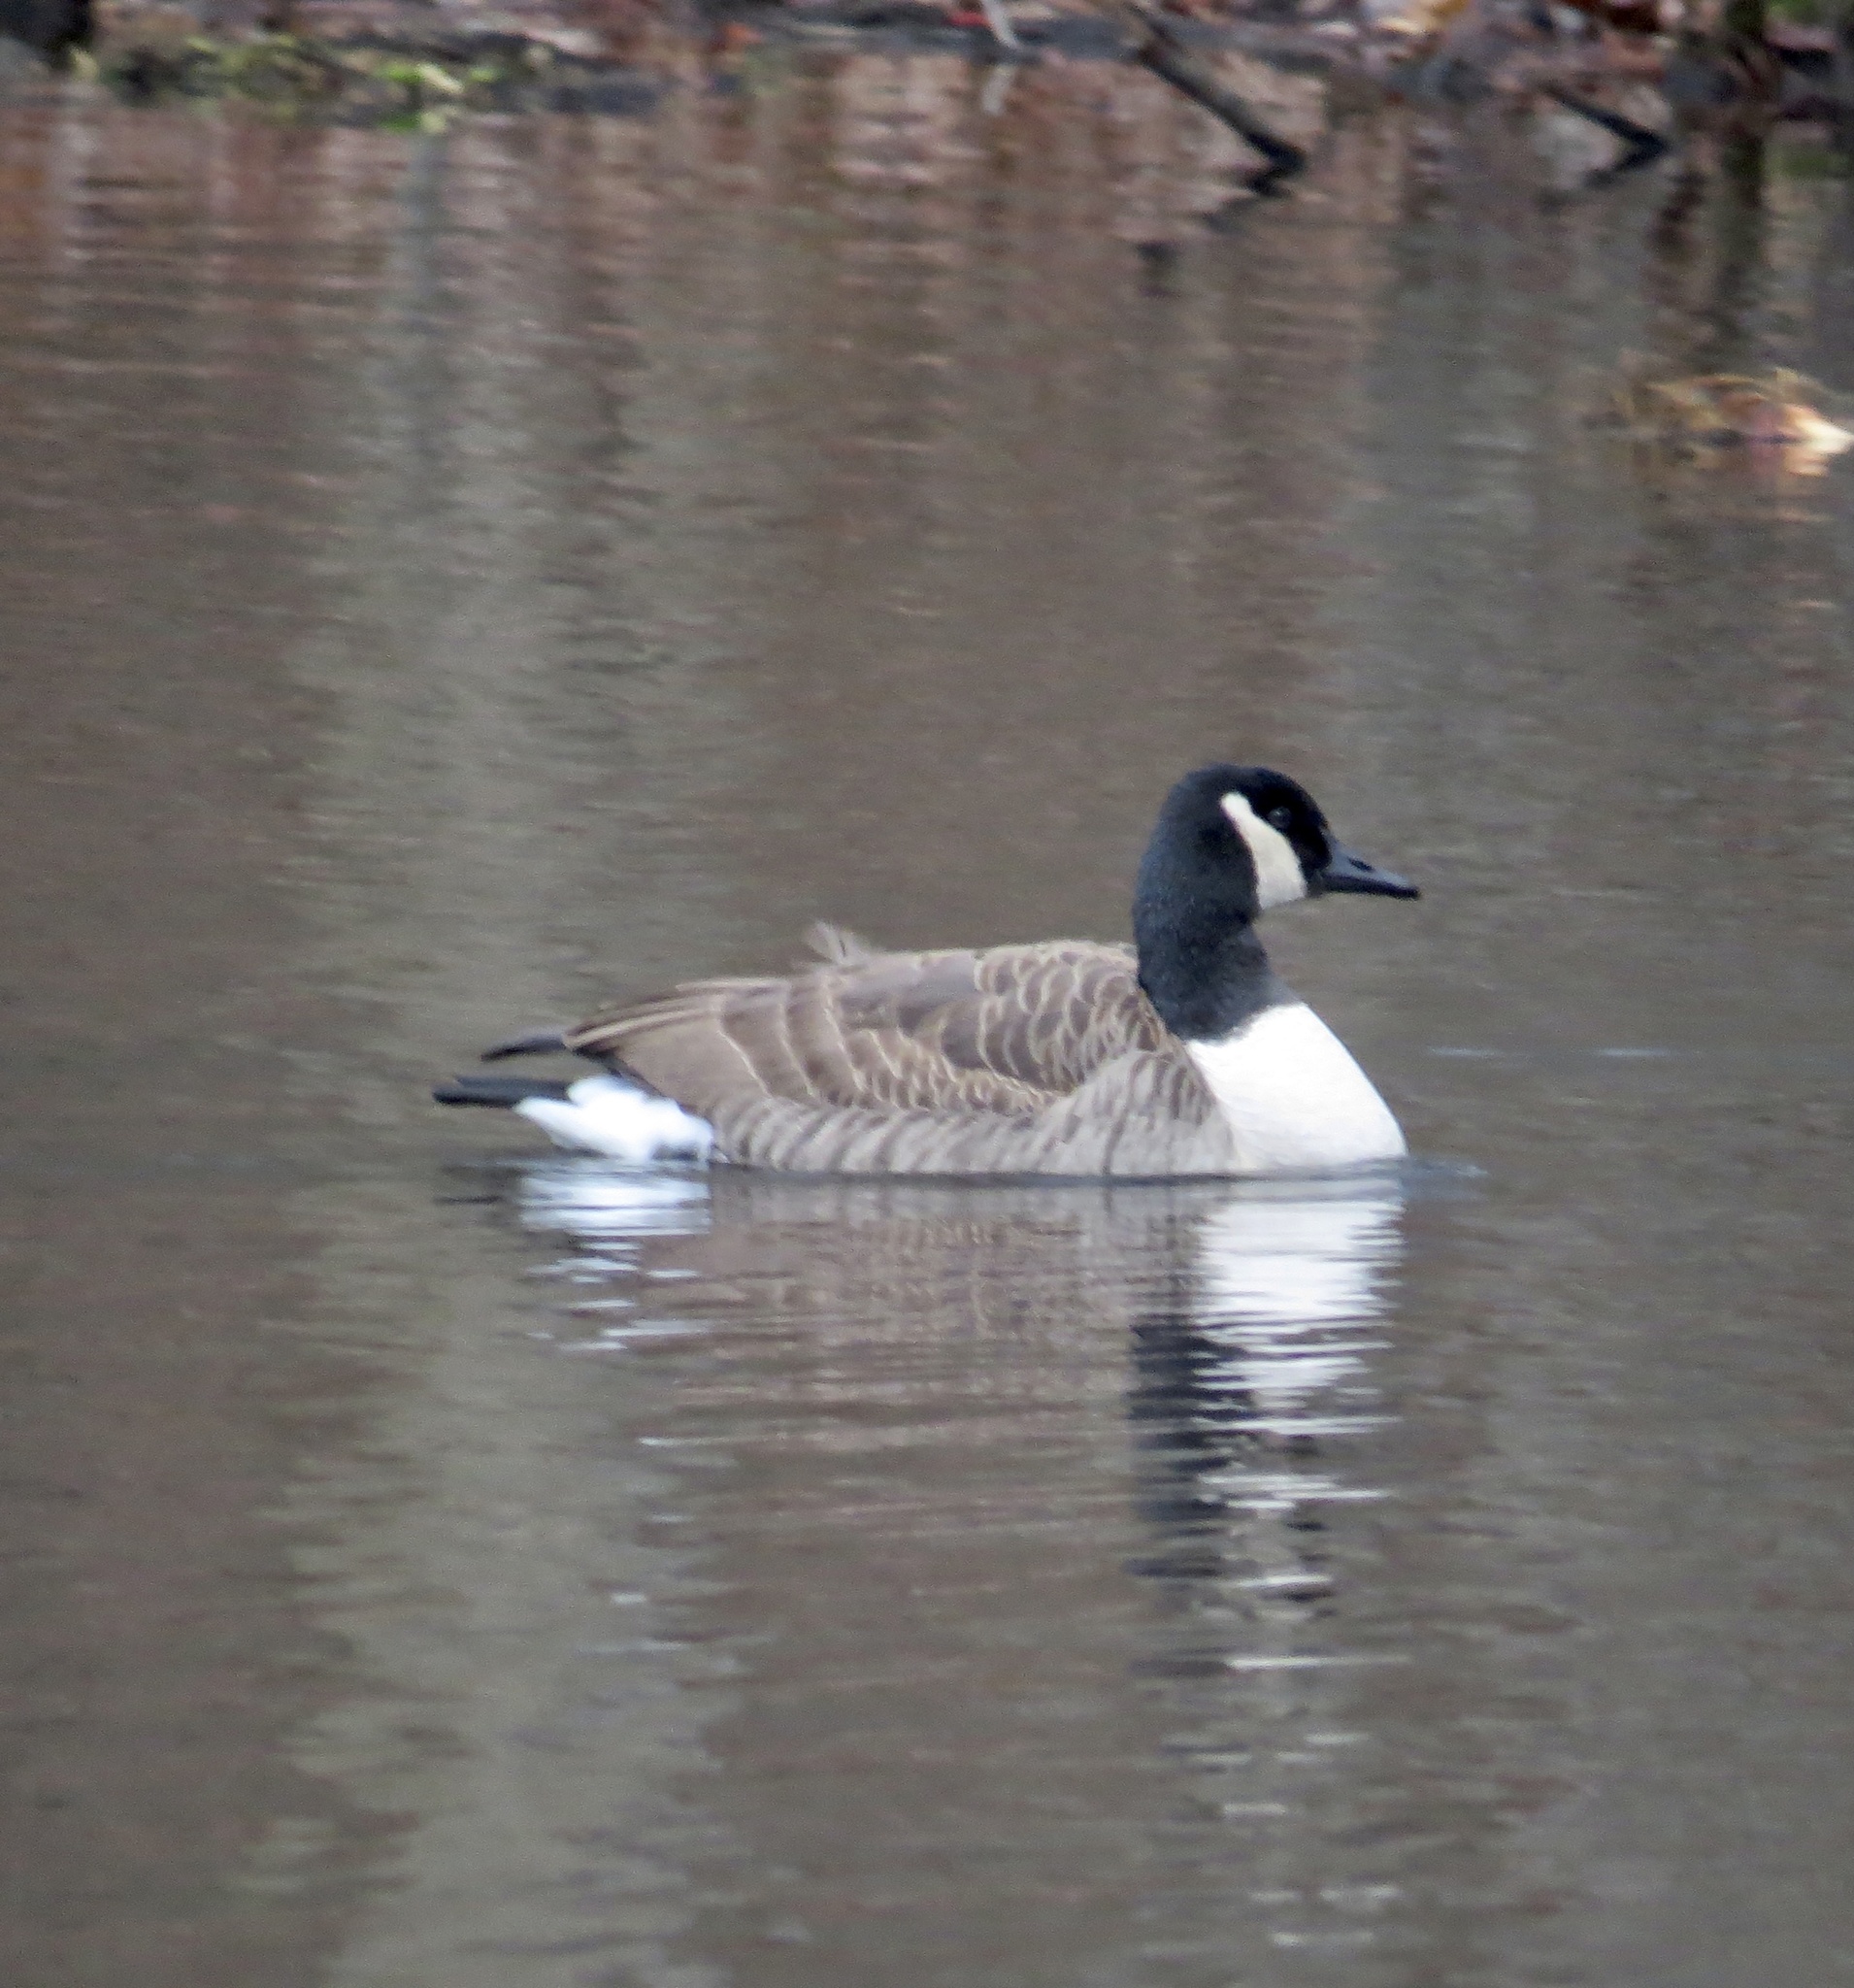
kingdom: Animalia
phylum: Chordata
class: Aves
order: Anseriformes
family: Anatidae
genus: Branta
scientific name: Branta canadensis
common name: Canada goose
